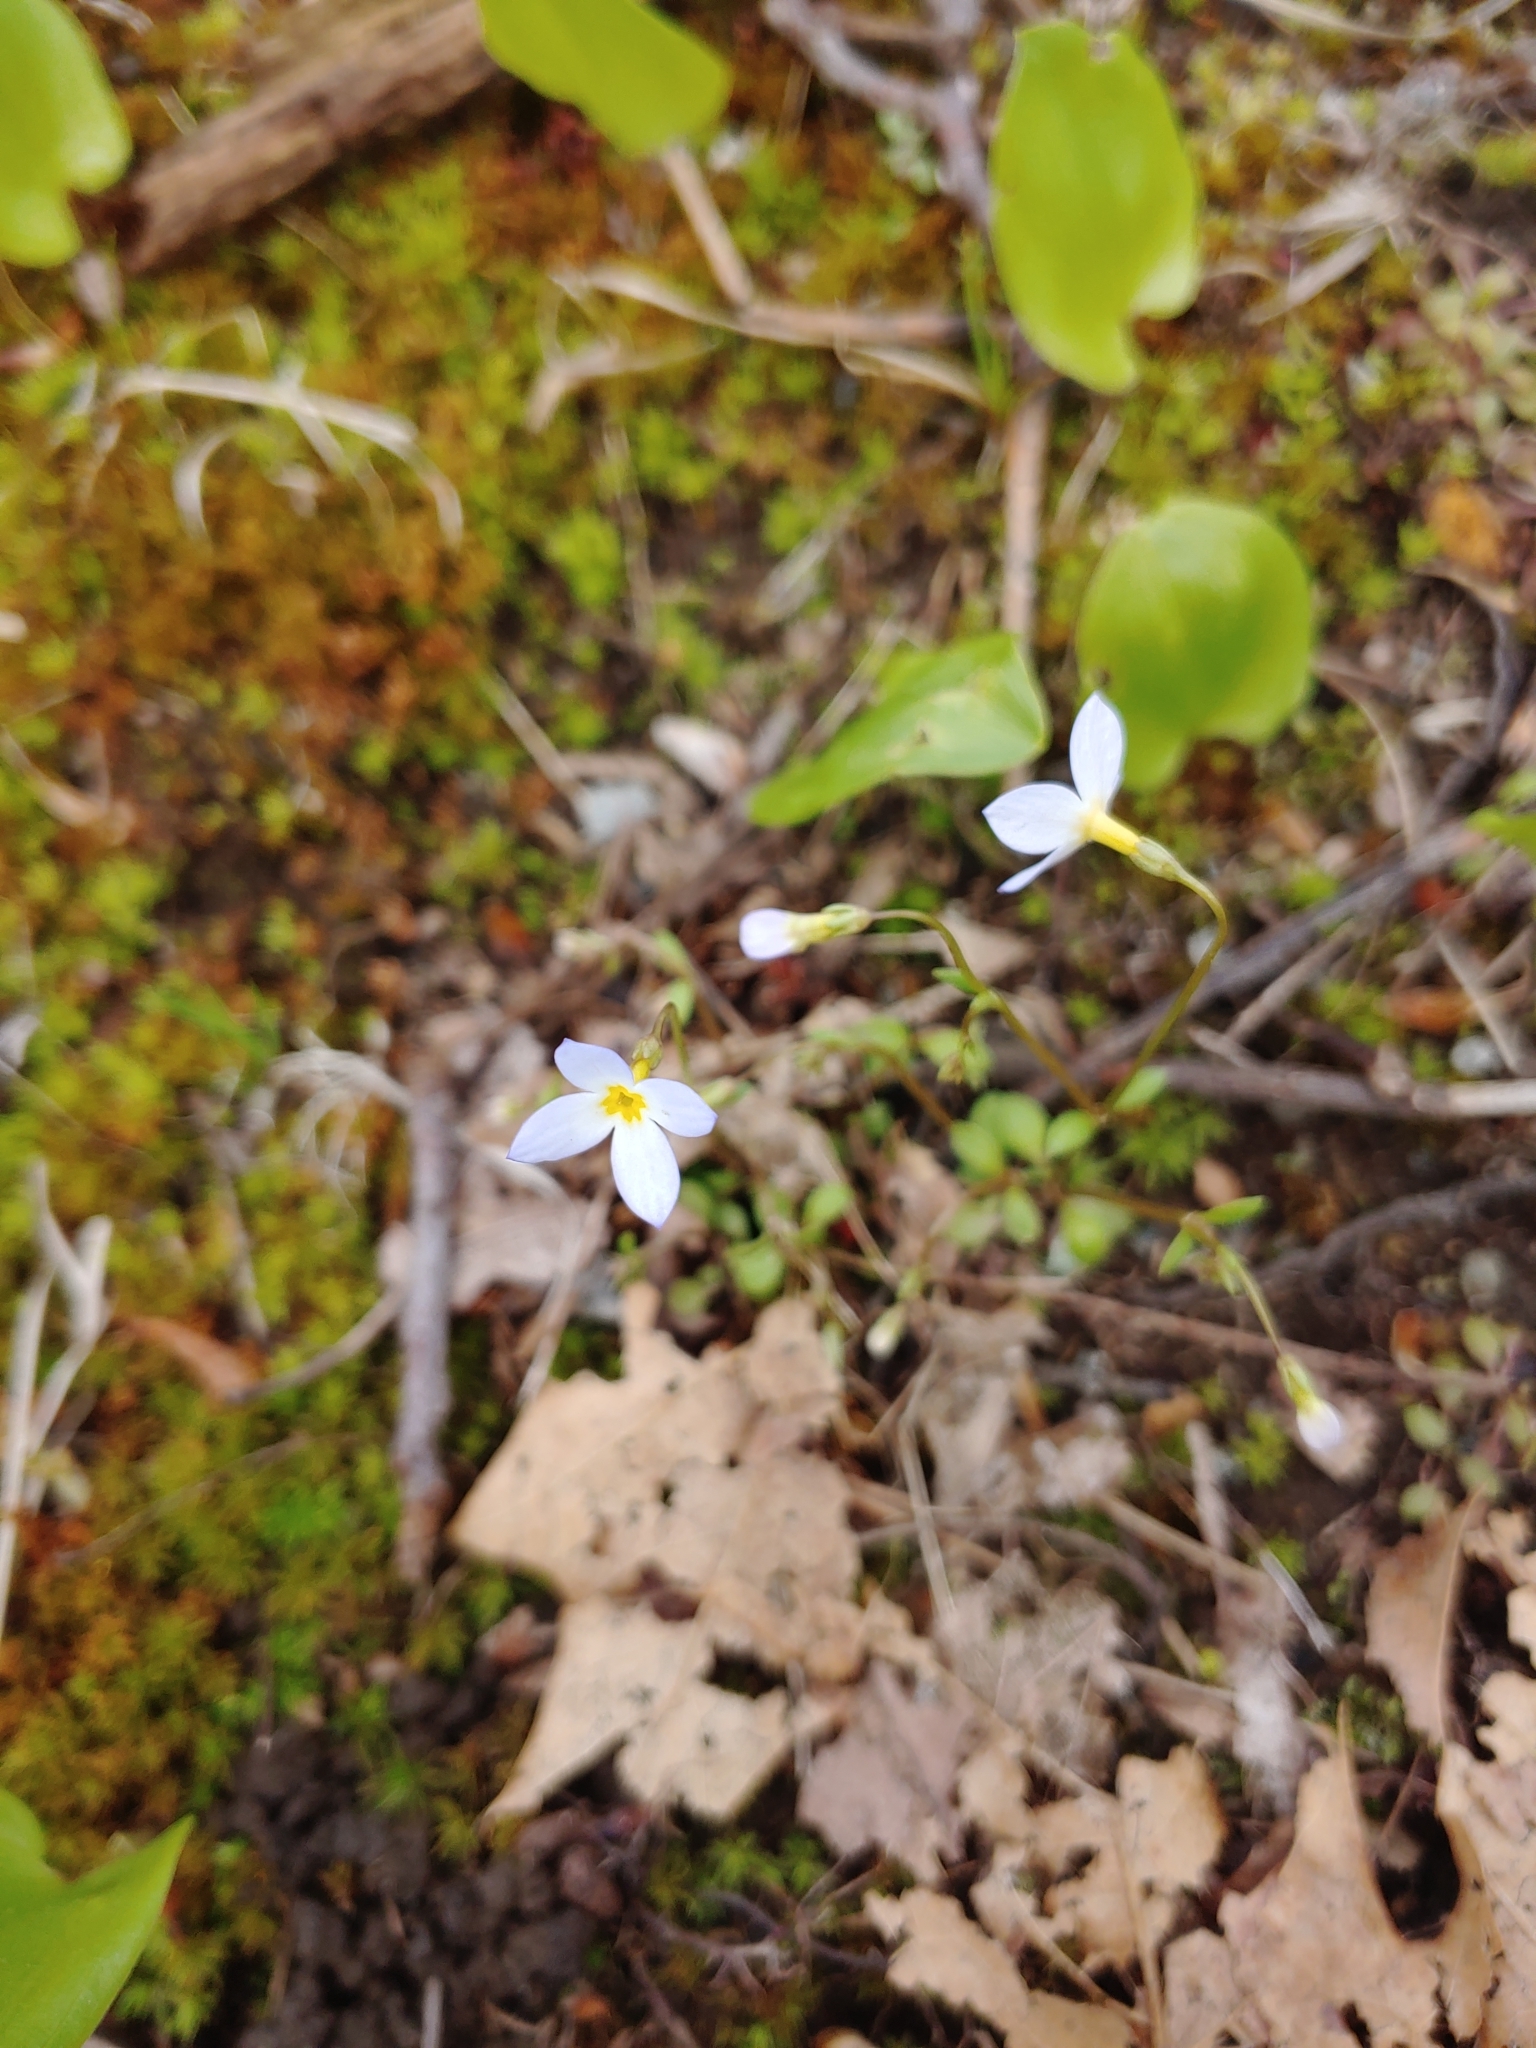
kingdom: Plantae
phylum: Tracheophyta
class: Magnoliopsida
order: Gentianales
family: Rubiaceae
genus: Houstonia
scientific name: Houstonia caerulea
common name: Bluets
